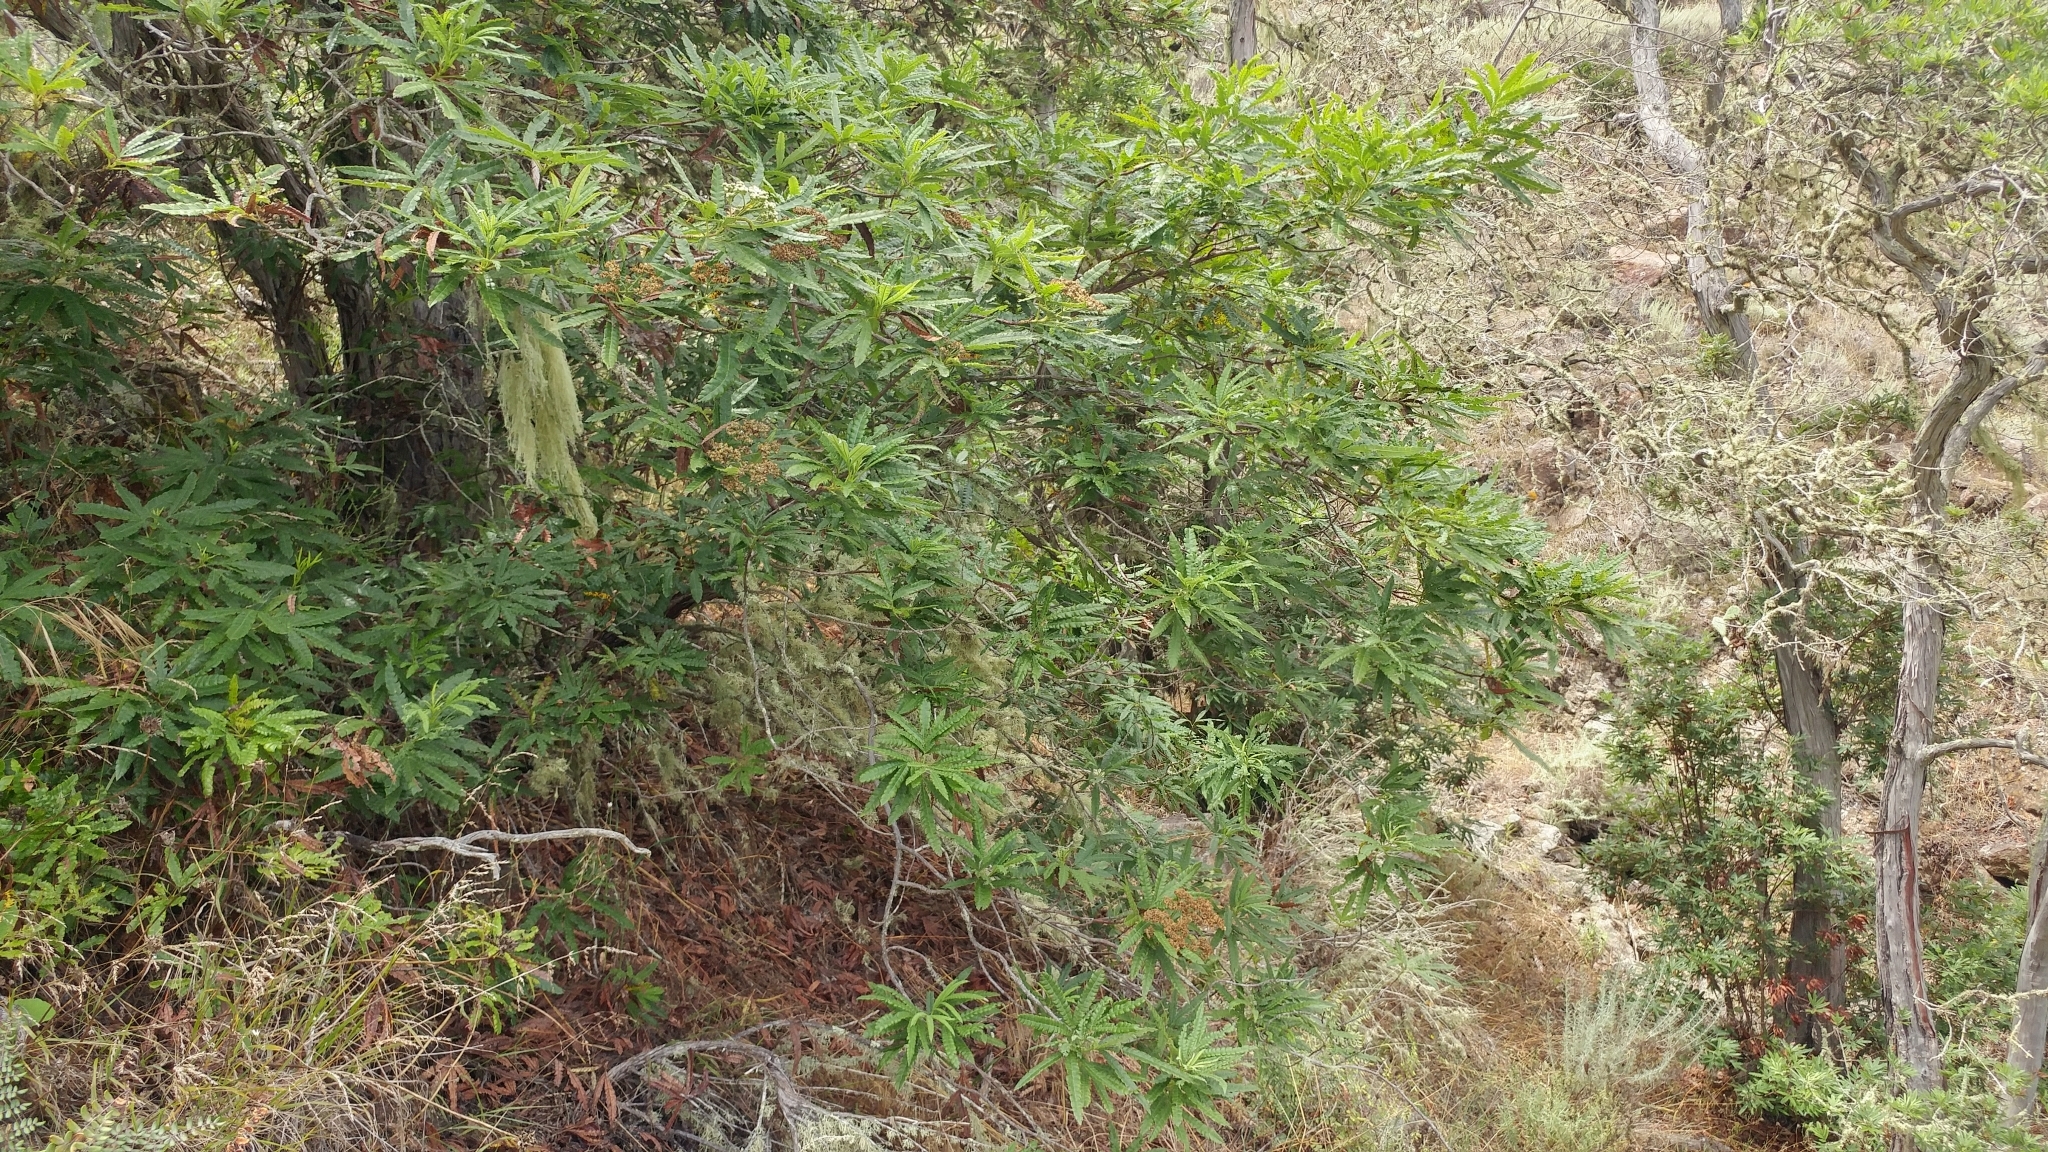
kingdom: Plantae
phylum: Tracheophyta
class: Magnoliopsida
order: Rosales
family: Rosaceae
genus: Lyonothamnus
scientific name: Lyonothamnus floribundus
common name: Catalina ironwood
